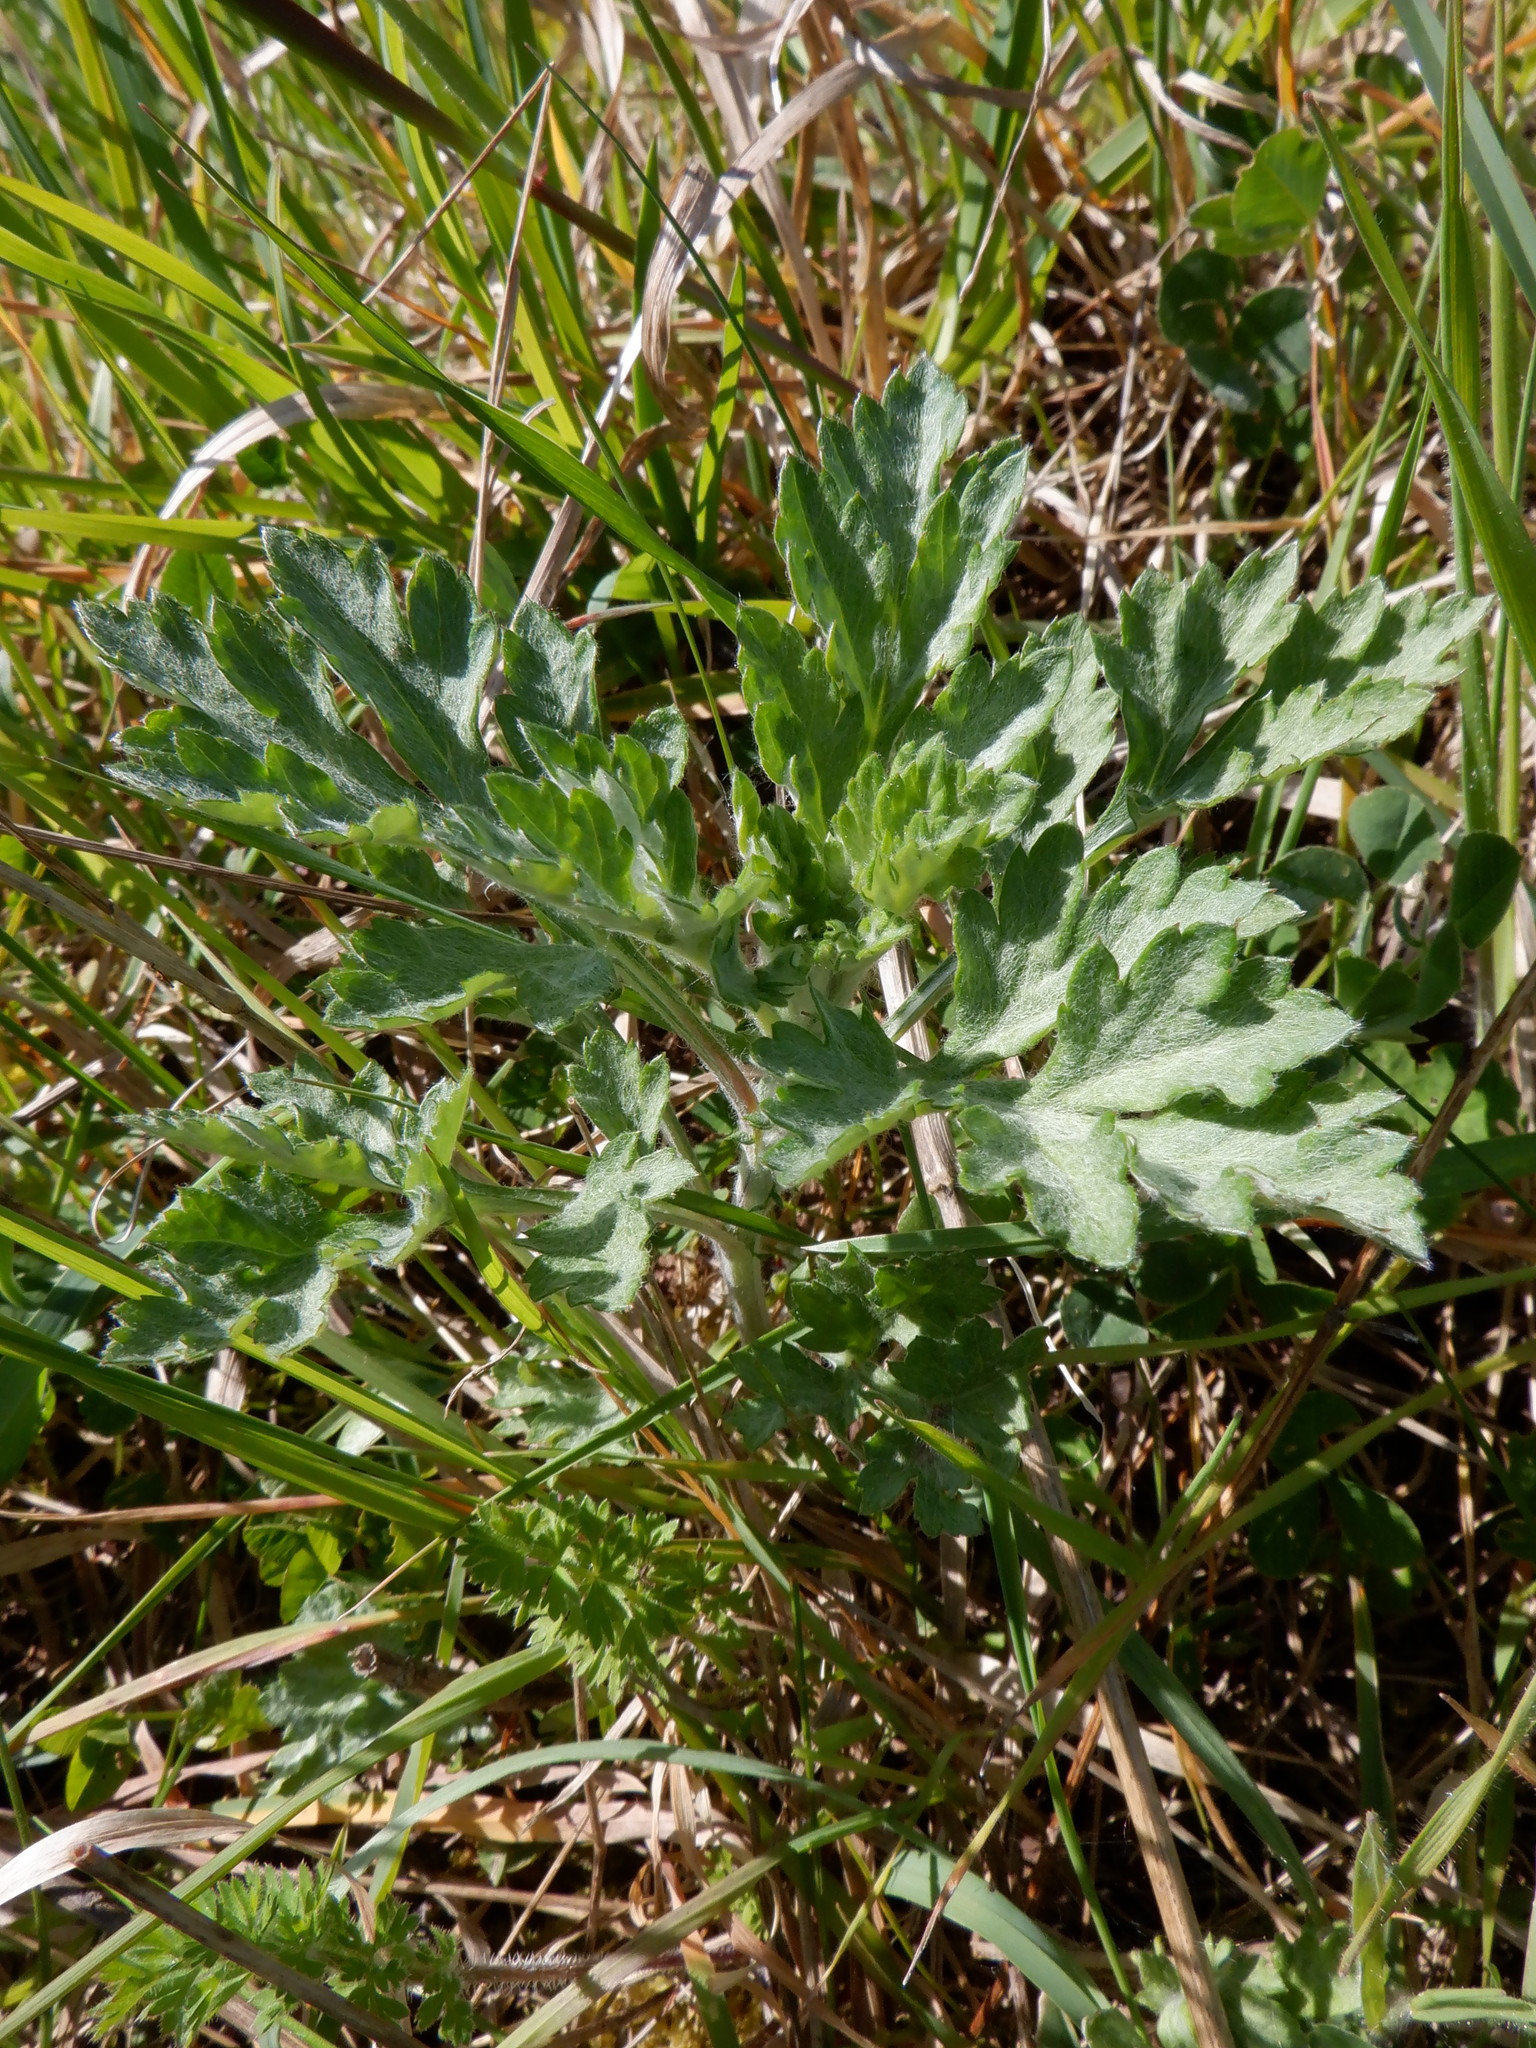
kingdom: Plantae
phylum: Tracheophyta
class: Magnoliopsida
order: Asterales
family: Asteraceae
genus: Artemisia
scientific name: Artemisia vulgaris
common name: Mugwort
